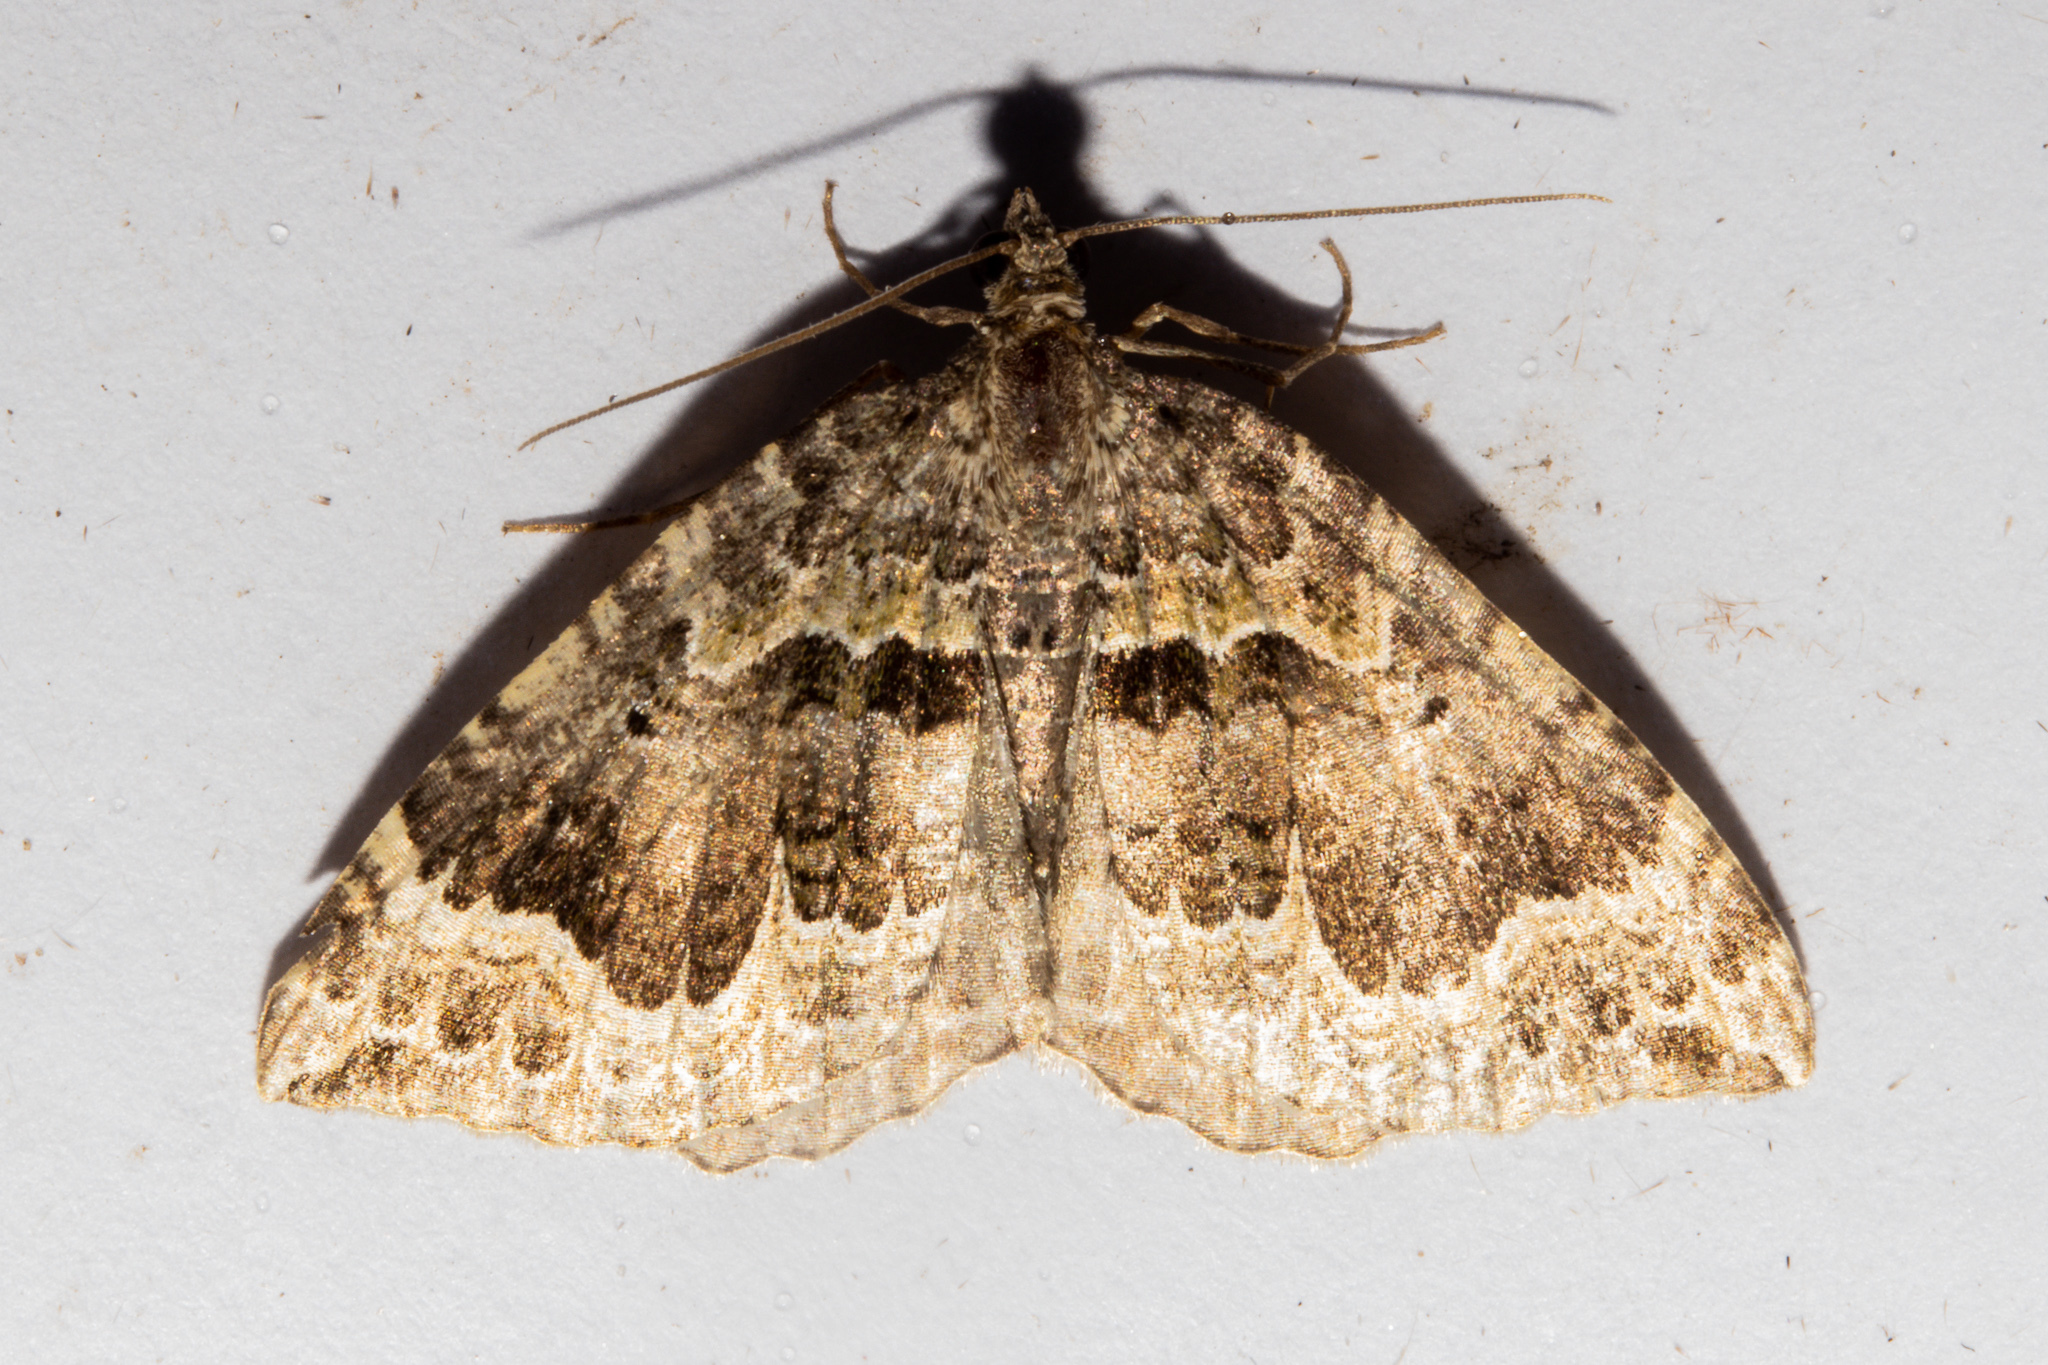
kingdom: Animalia
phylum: Arthropoda
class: Insecta
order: Lepidoptera
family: Geometridae
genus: Hydriomena
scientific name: Hydriomena rixata
